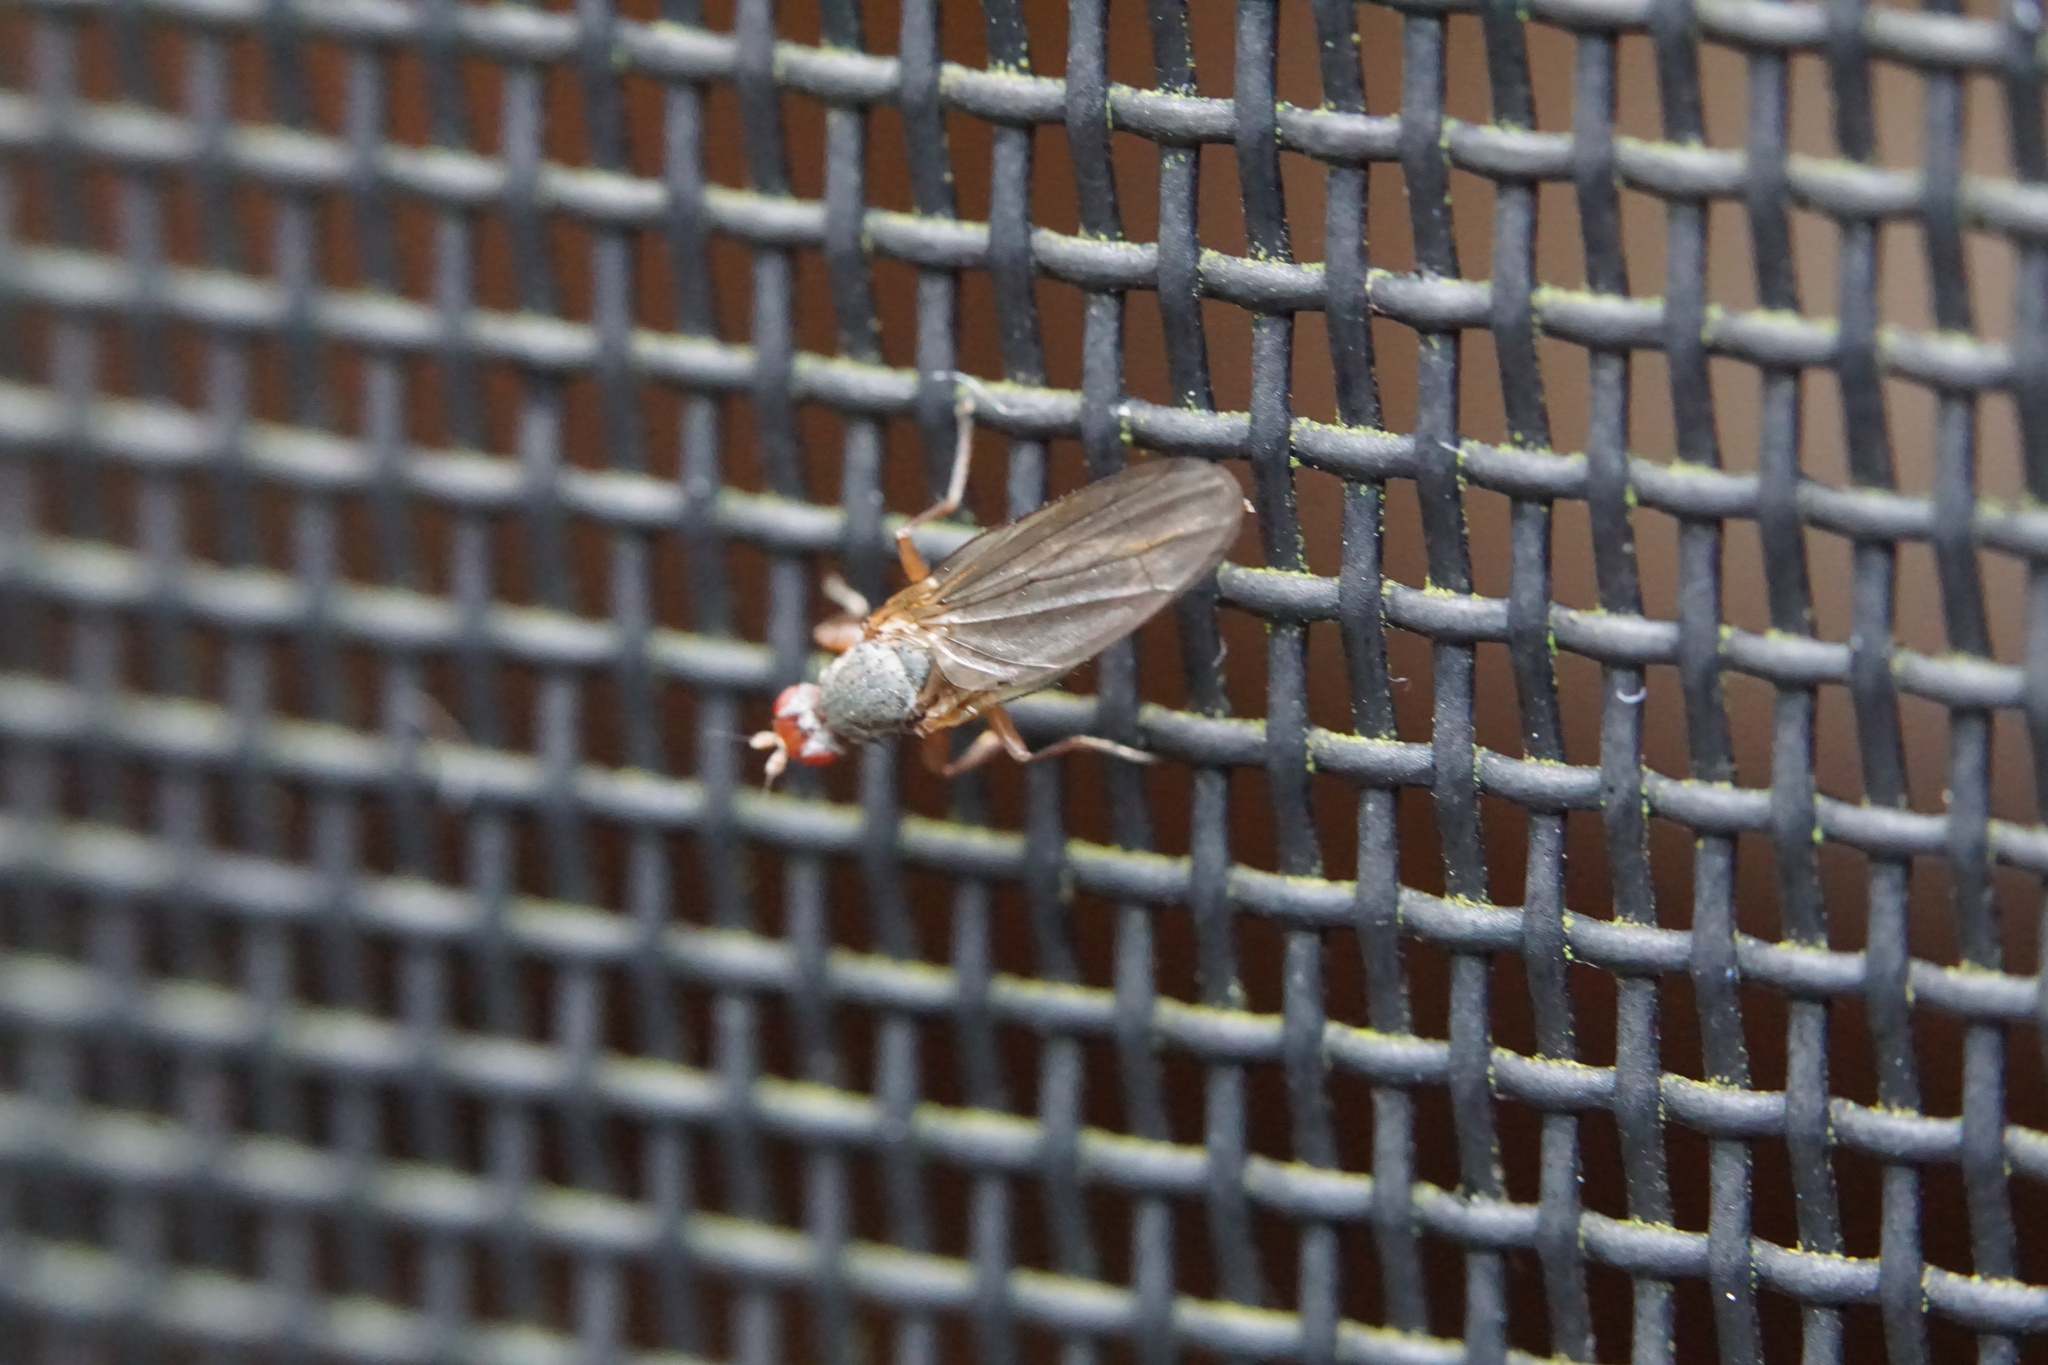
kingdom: Animalia
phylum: Arthropoda
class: Insecta
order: Diptera
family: Heleomyzidae
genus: Orbellia
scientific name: Orbellia barbata
